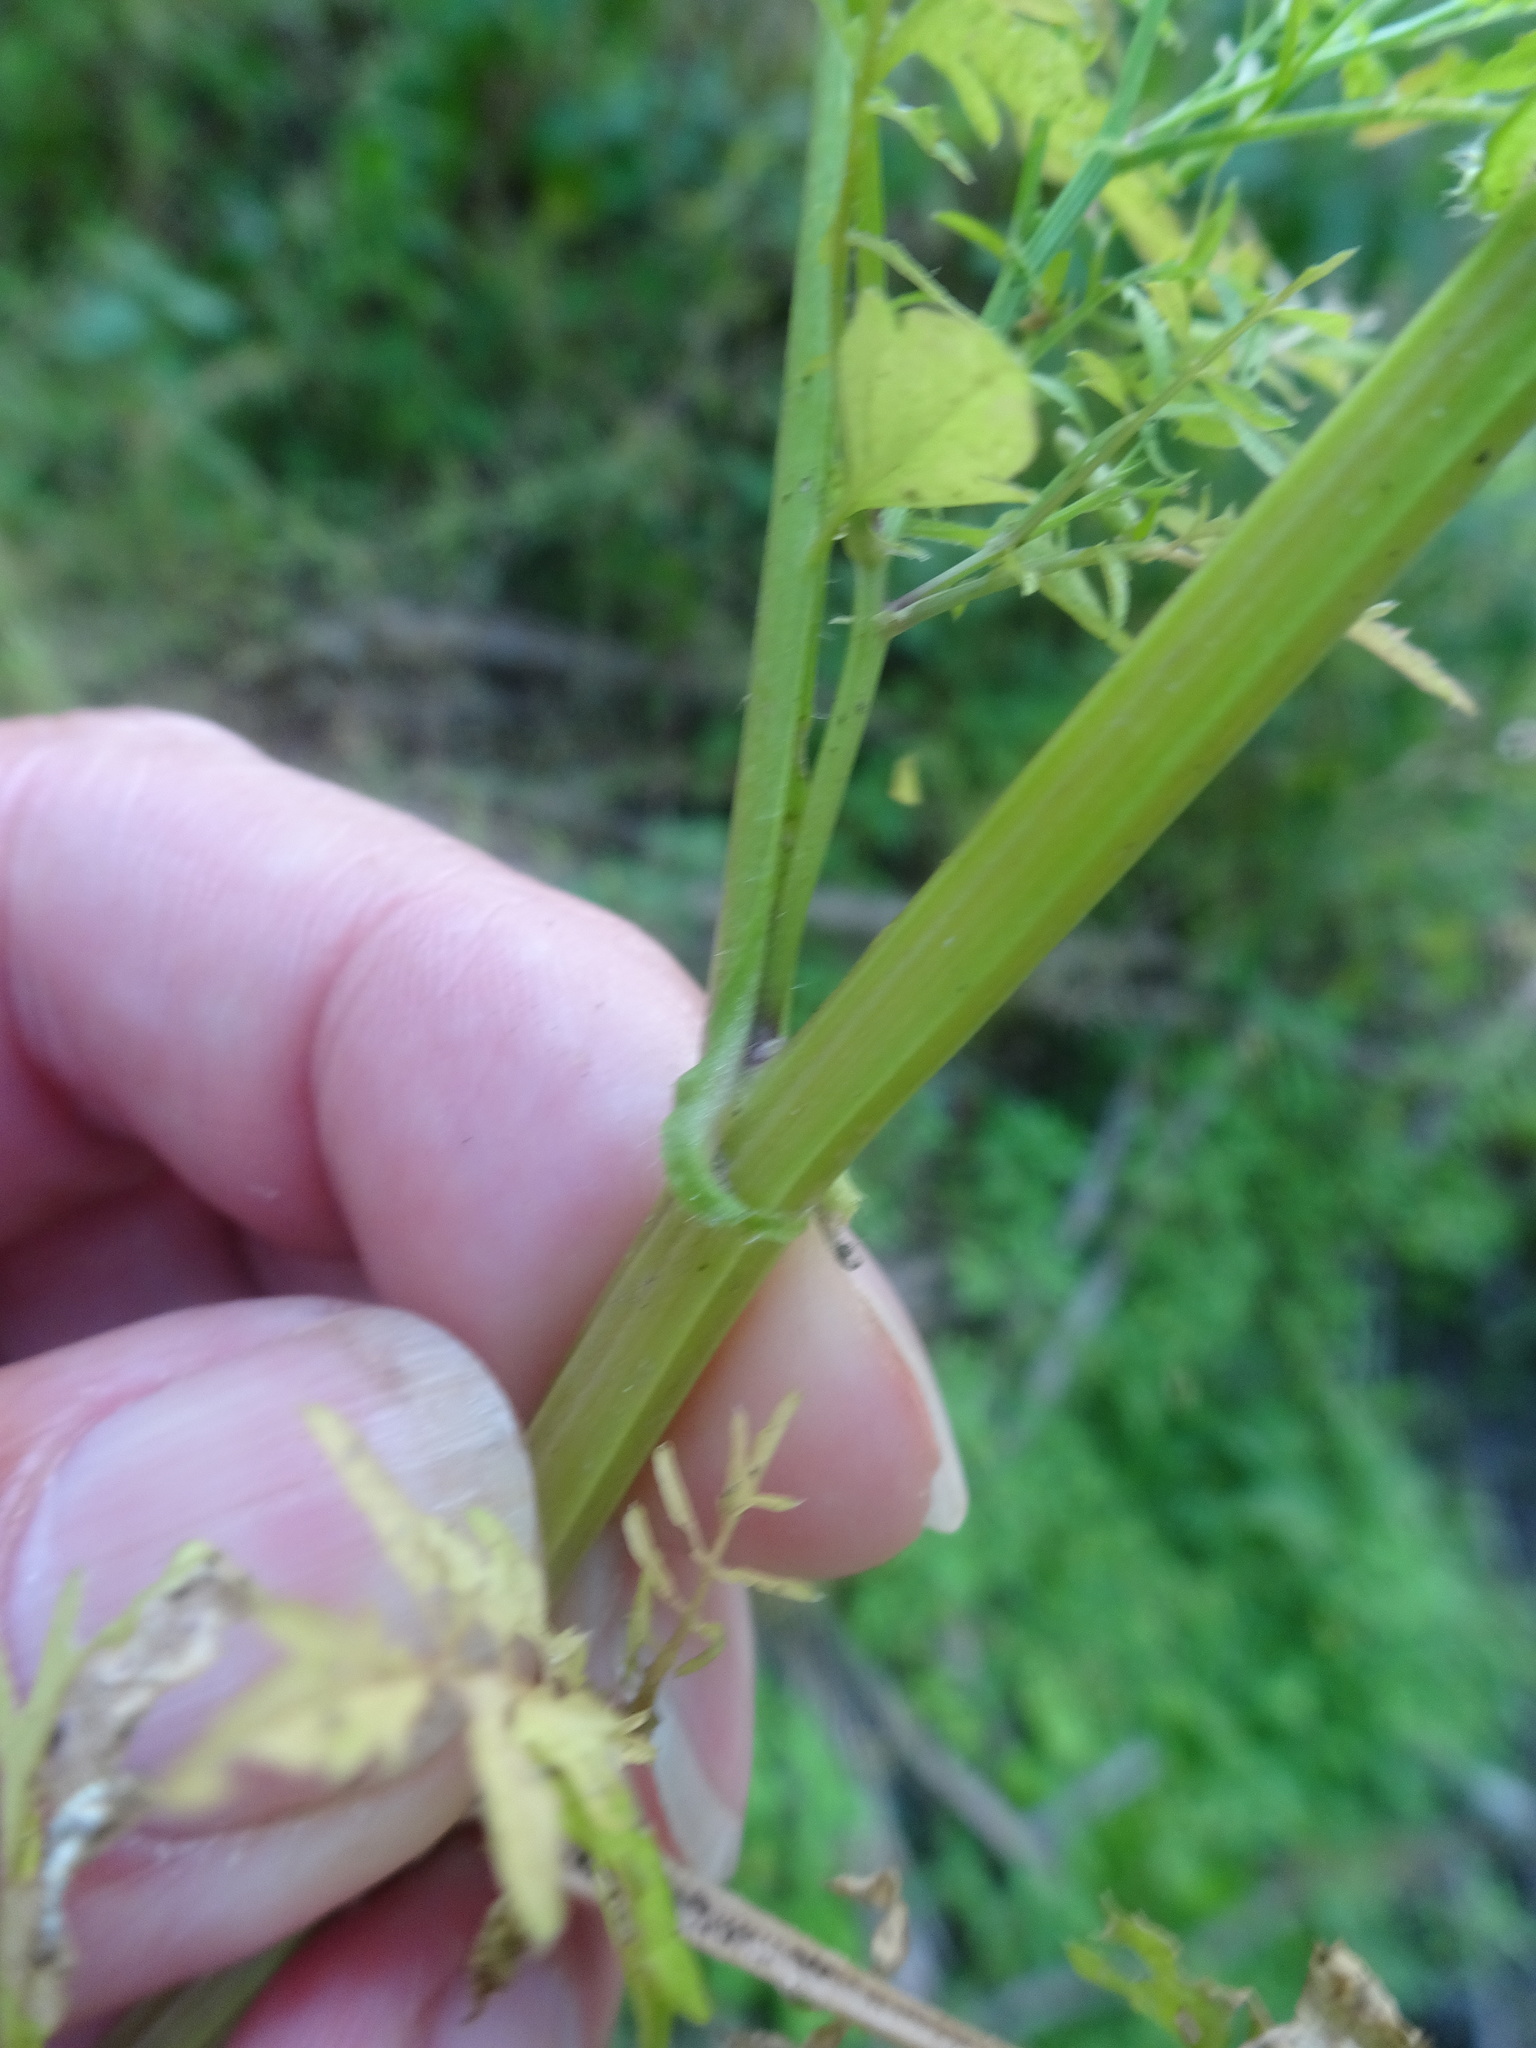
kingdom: Plantae
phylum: Tracheophyta
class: Magnoliopsida
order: Brassicales
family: Brassicaceae
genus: Cardamine
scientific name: Cardamine impatiens
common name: Narrow-leaved bitter-cress
